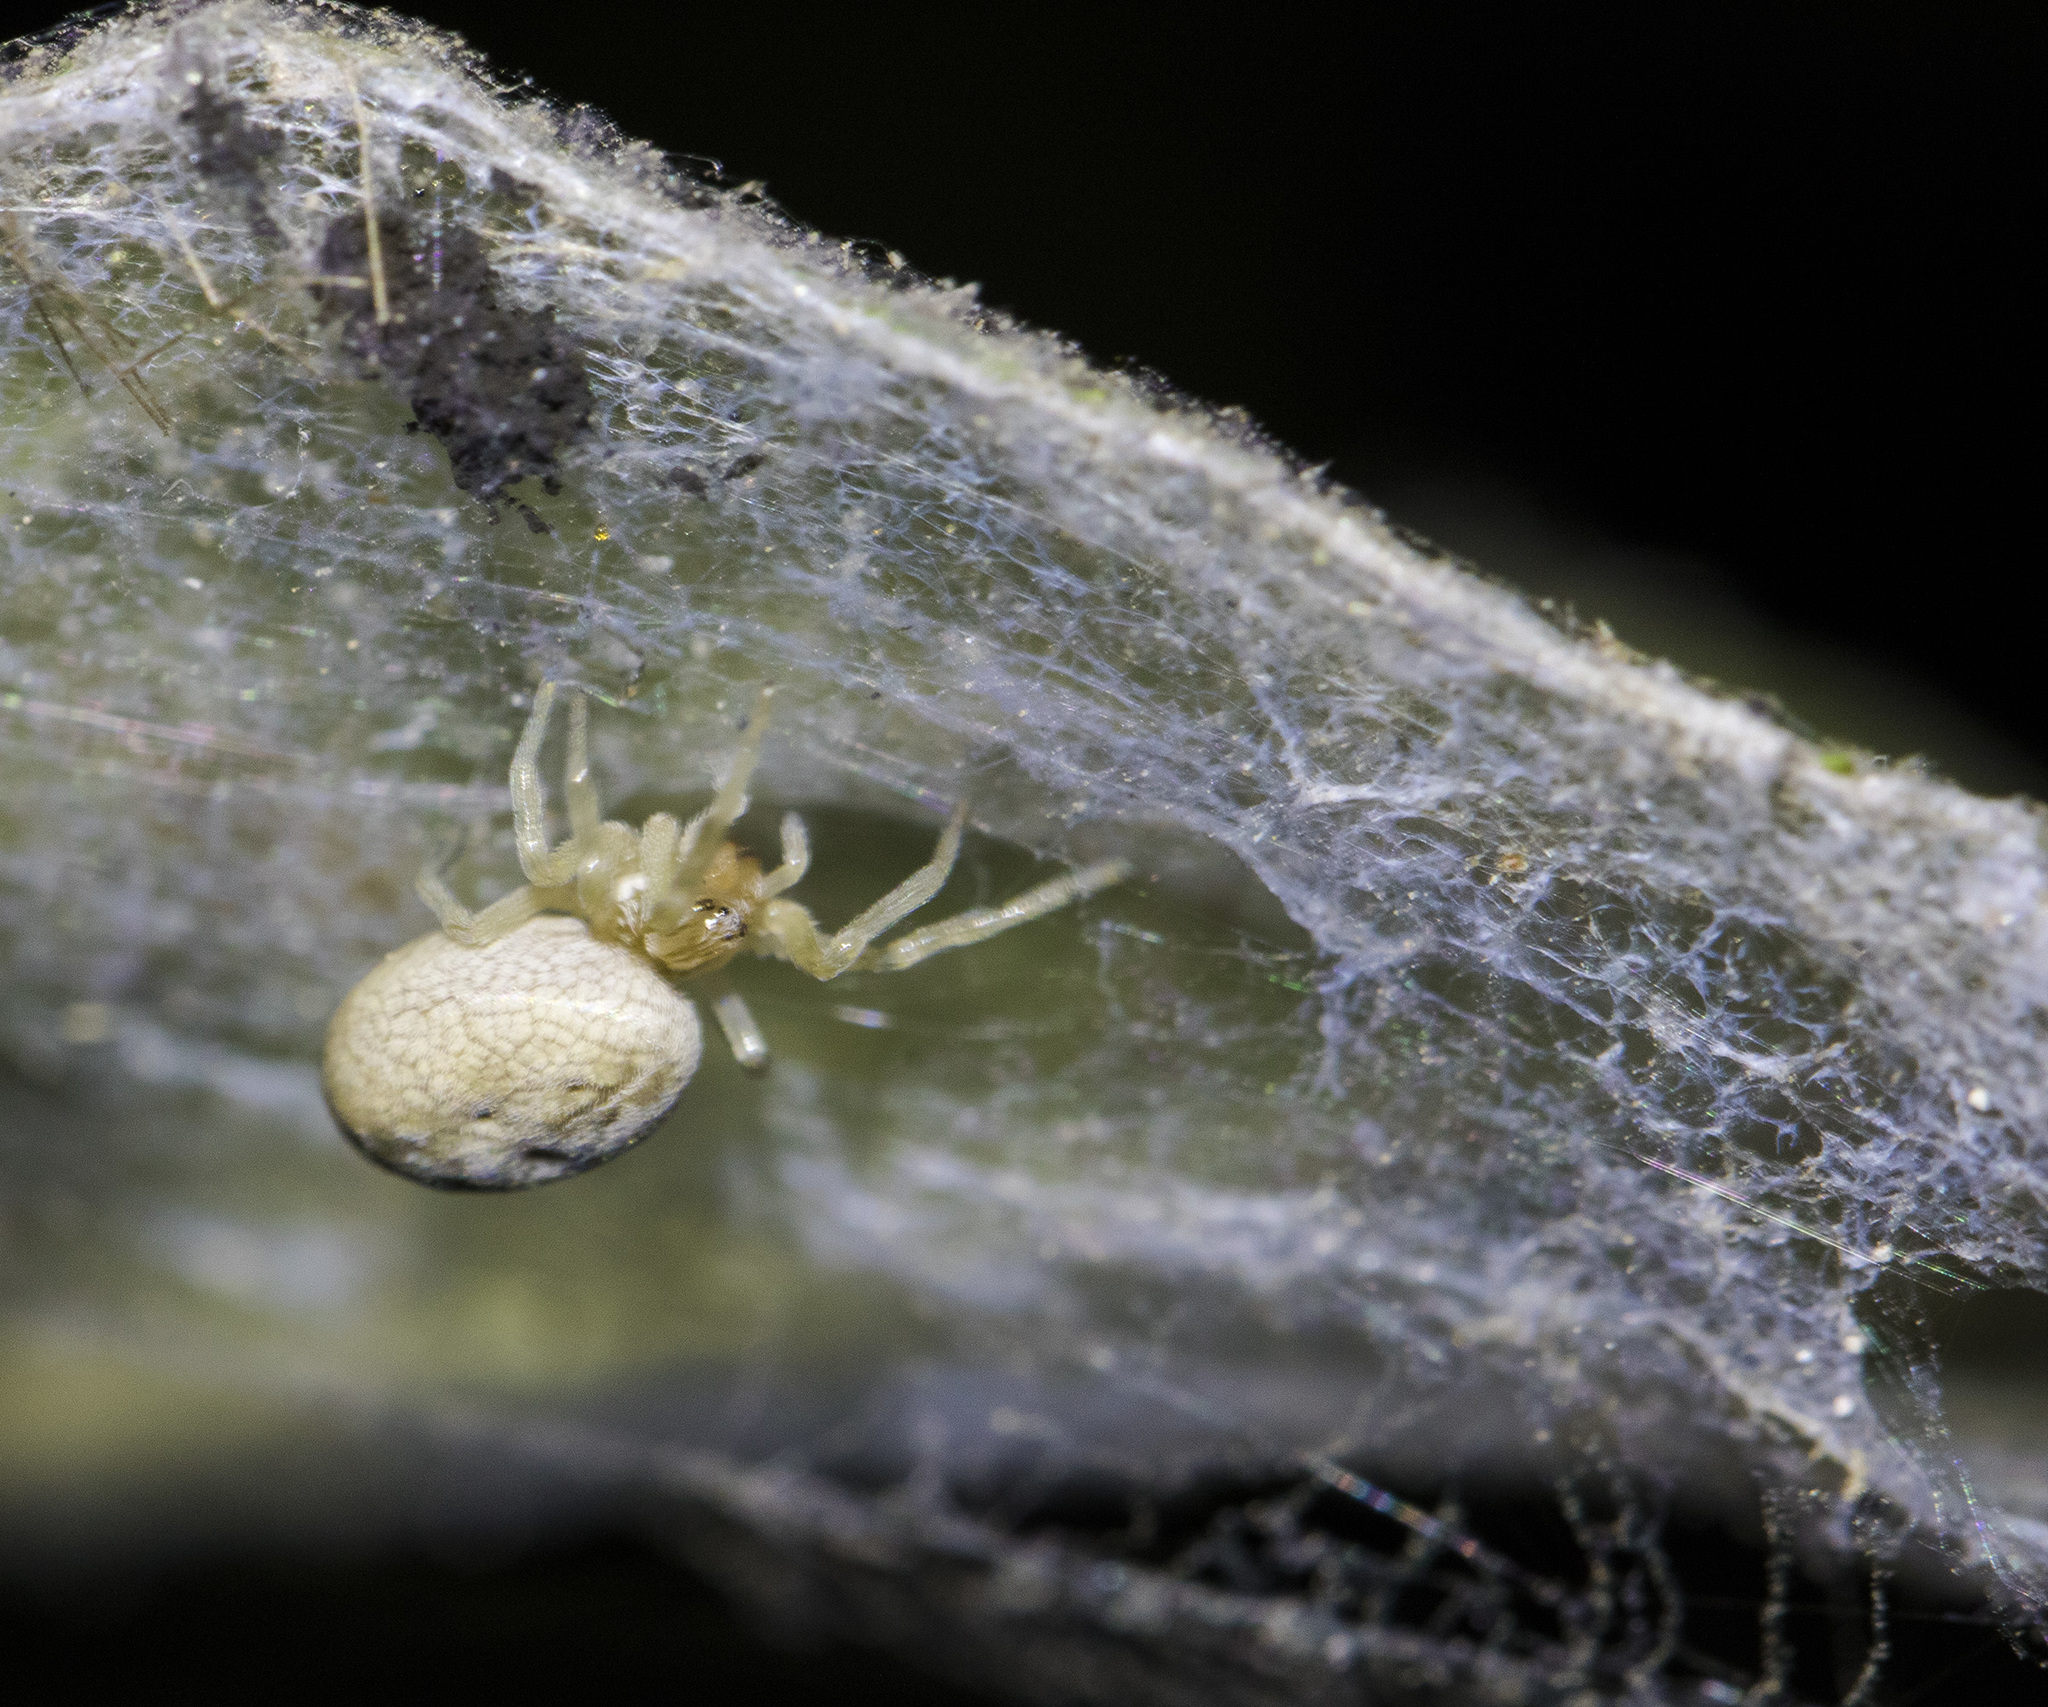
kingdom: Animalia
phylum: Arthropoda
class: Arachnida
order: Araneae
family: Dictynidae
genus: Dictynomorpha
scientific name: Dictynomorpha strandi
